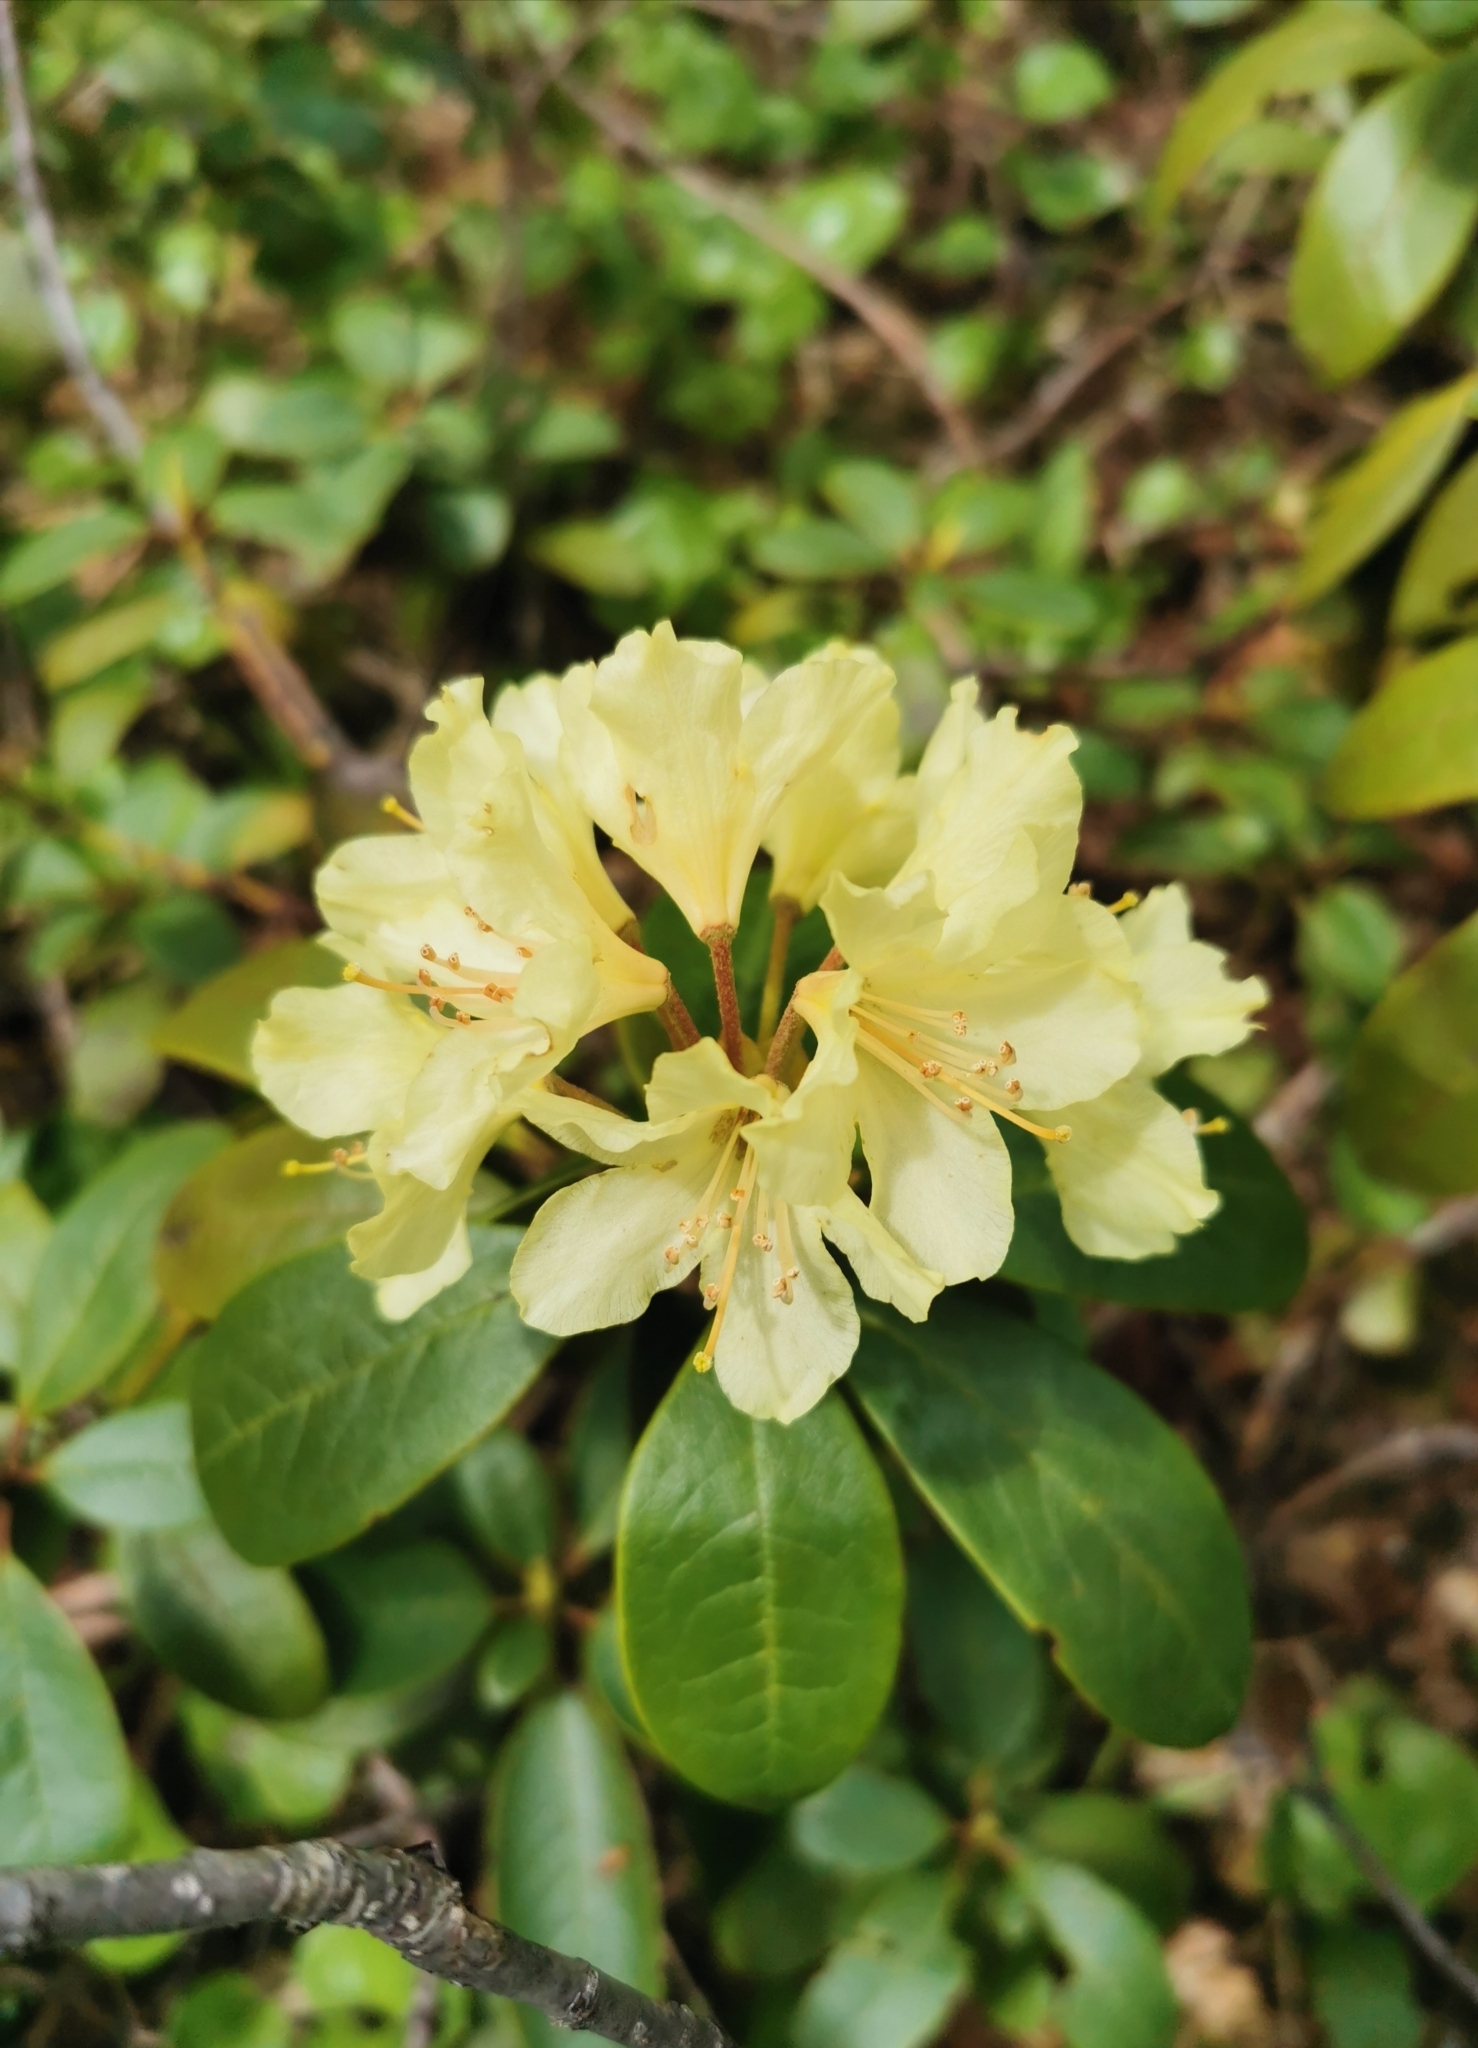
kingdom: Plantae
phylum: Tracheophyta
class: Magnoliopsida
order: Ericales
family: Ericaceae
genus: Rhododendron
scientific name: Rhododendron aureum
